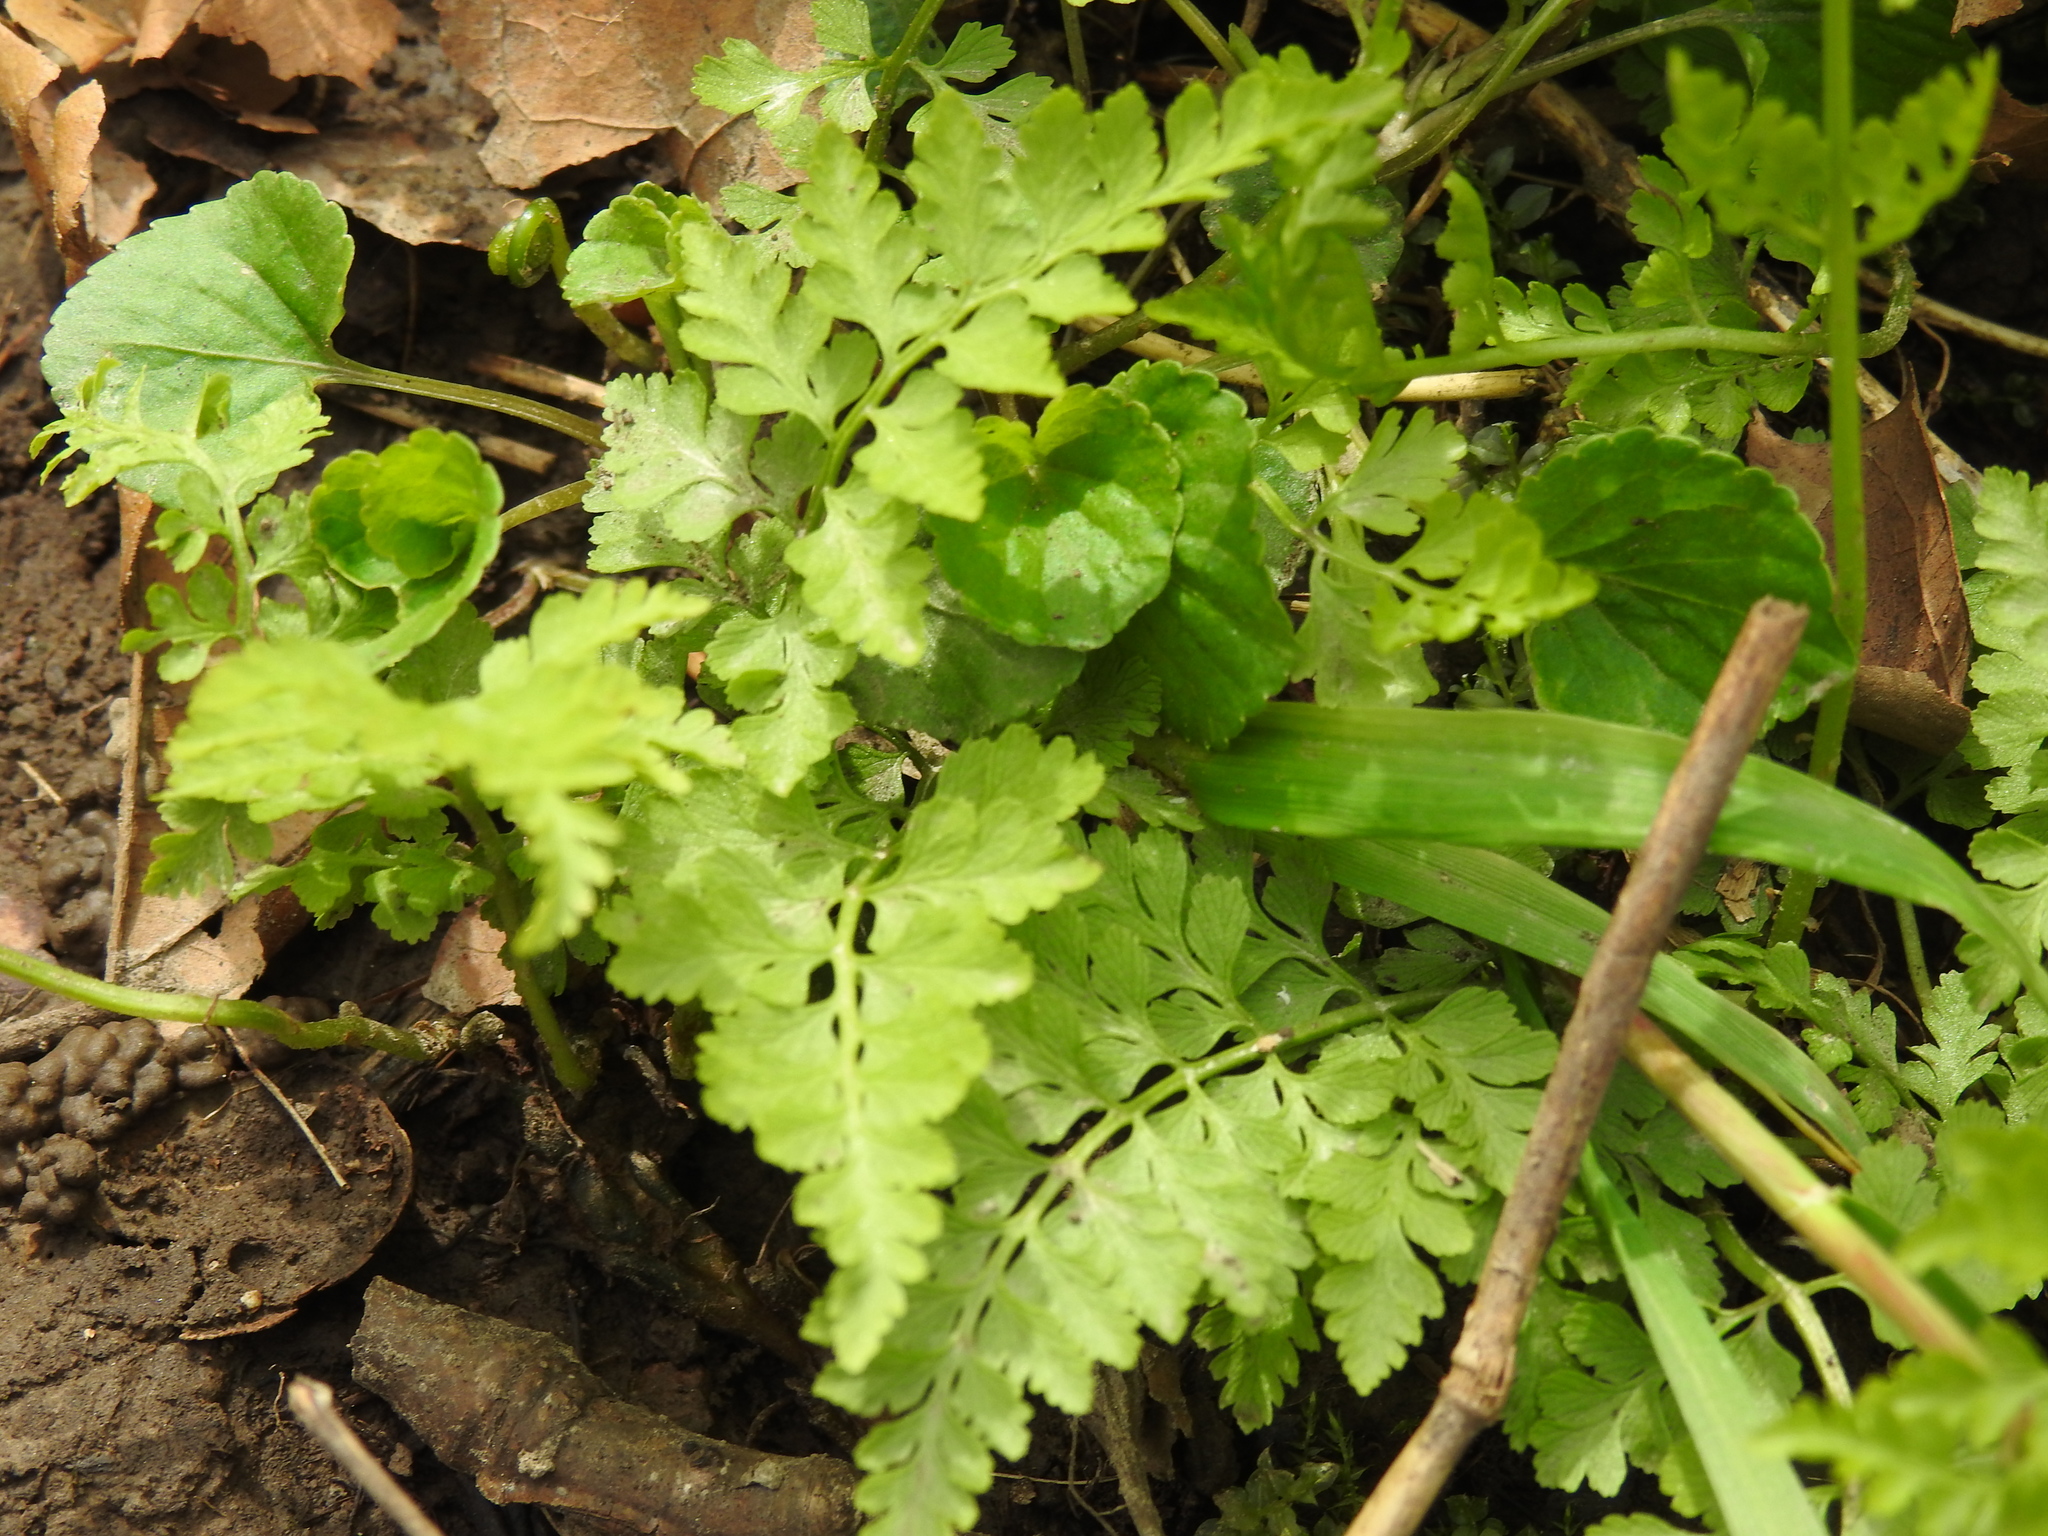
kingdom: Plantae
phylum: Tracheophyta
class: Polypodiopsida
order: Polypodiales
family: Cystopteridaceae
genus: Cystopteris
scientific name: Cystopteris protrusa
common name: Lowland brittle fern
